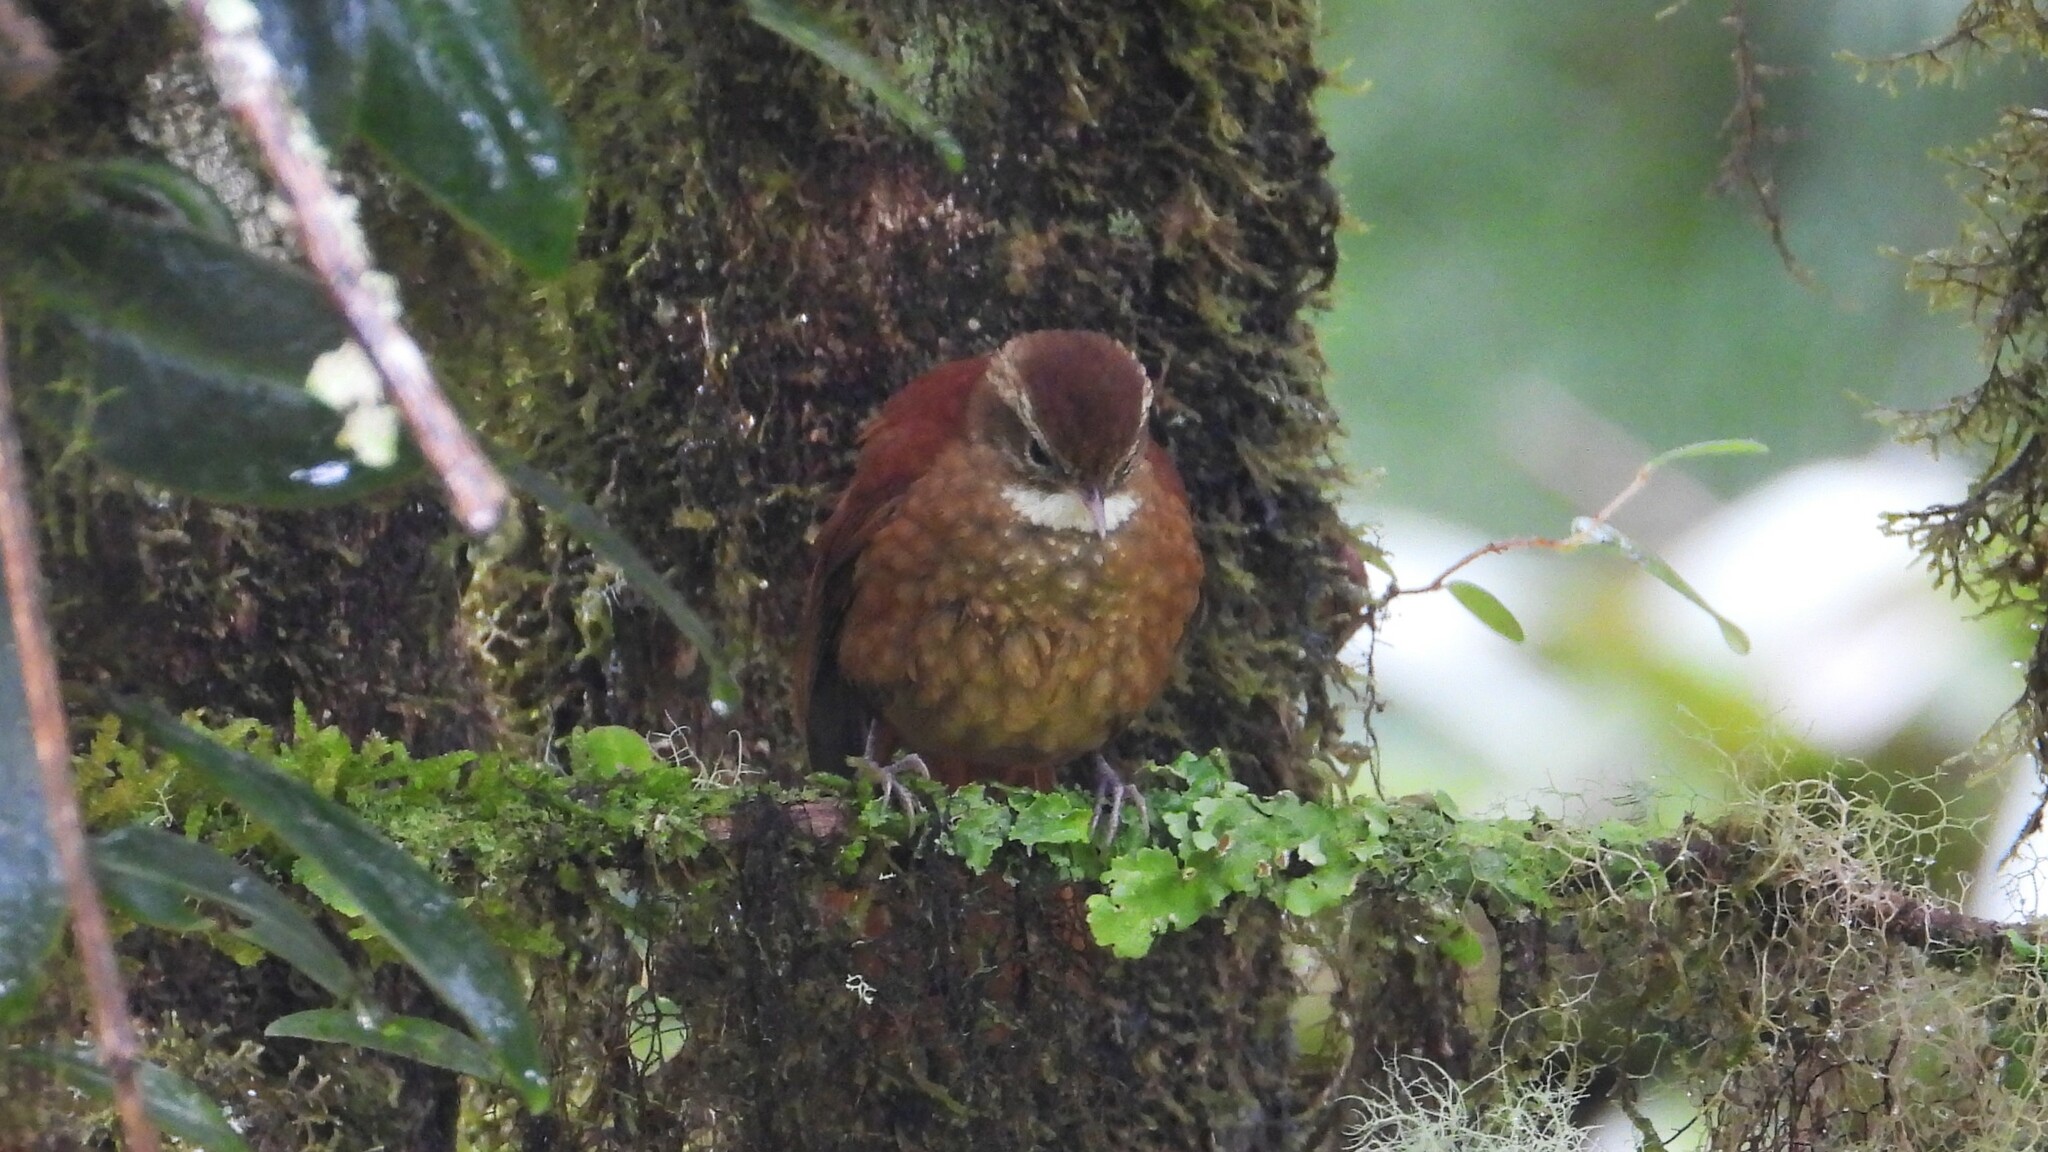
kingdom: Animalia
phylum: Chordata
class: Aves
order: Passeriformes
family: Furnariidae
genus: Margarornis
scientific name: Margarornis rubiginosus
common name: Ruddy treerunner
